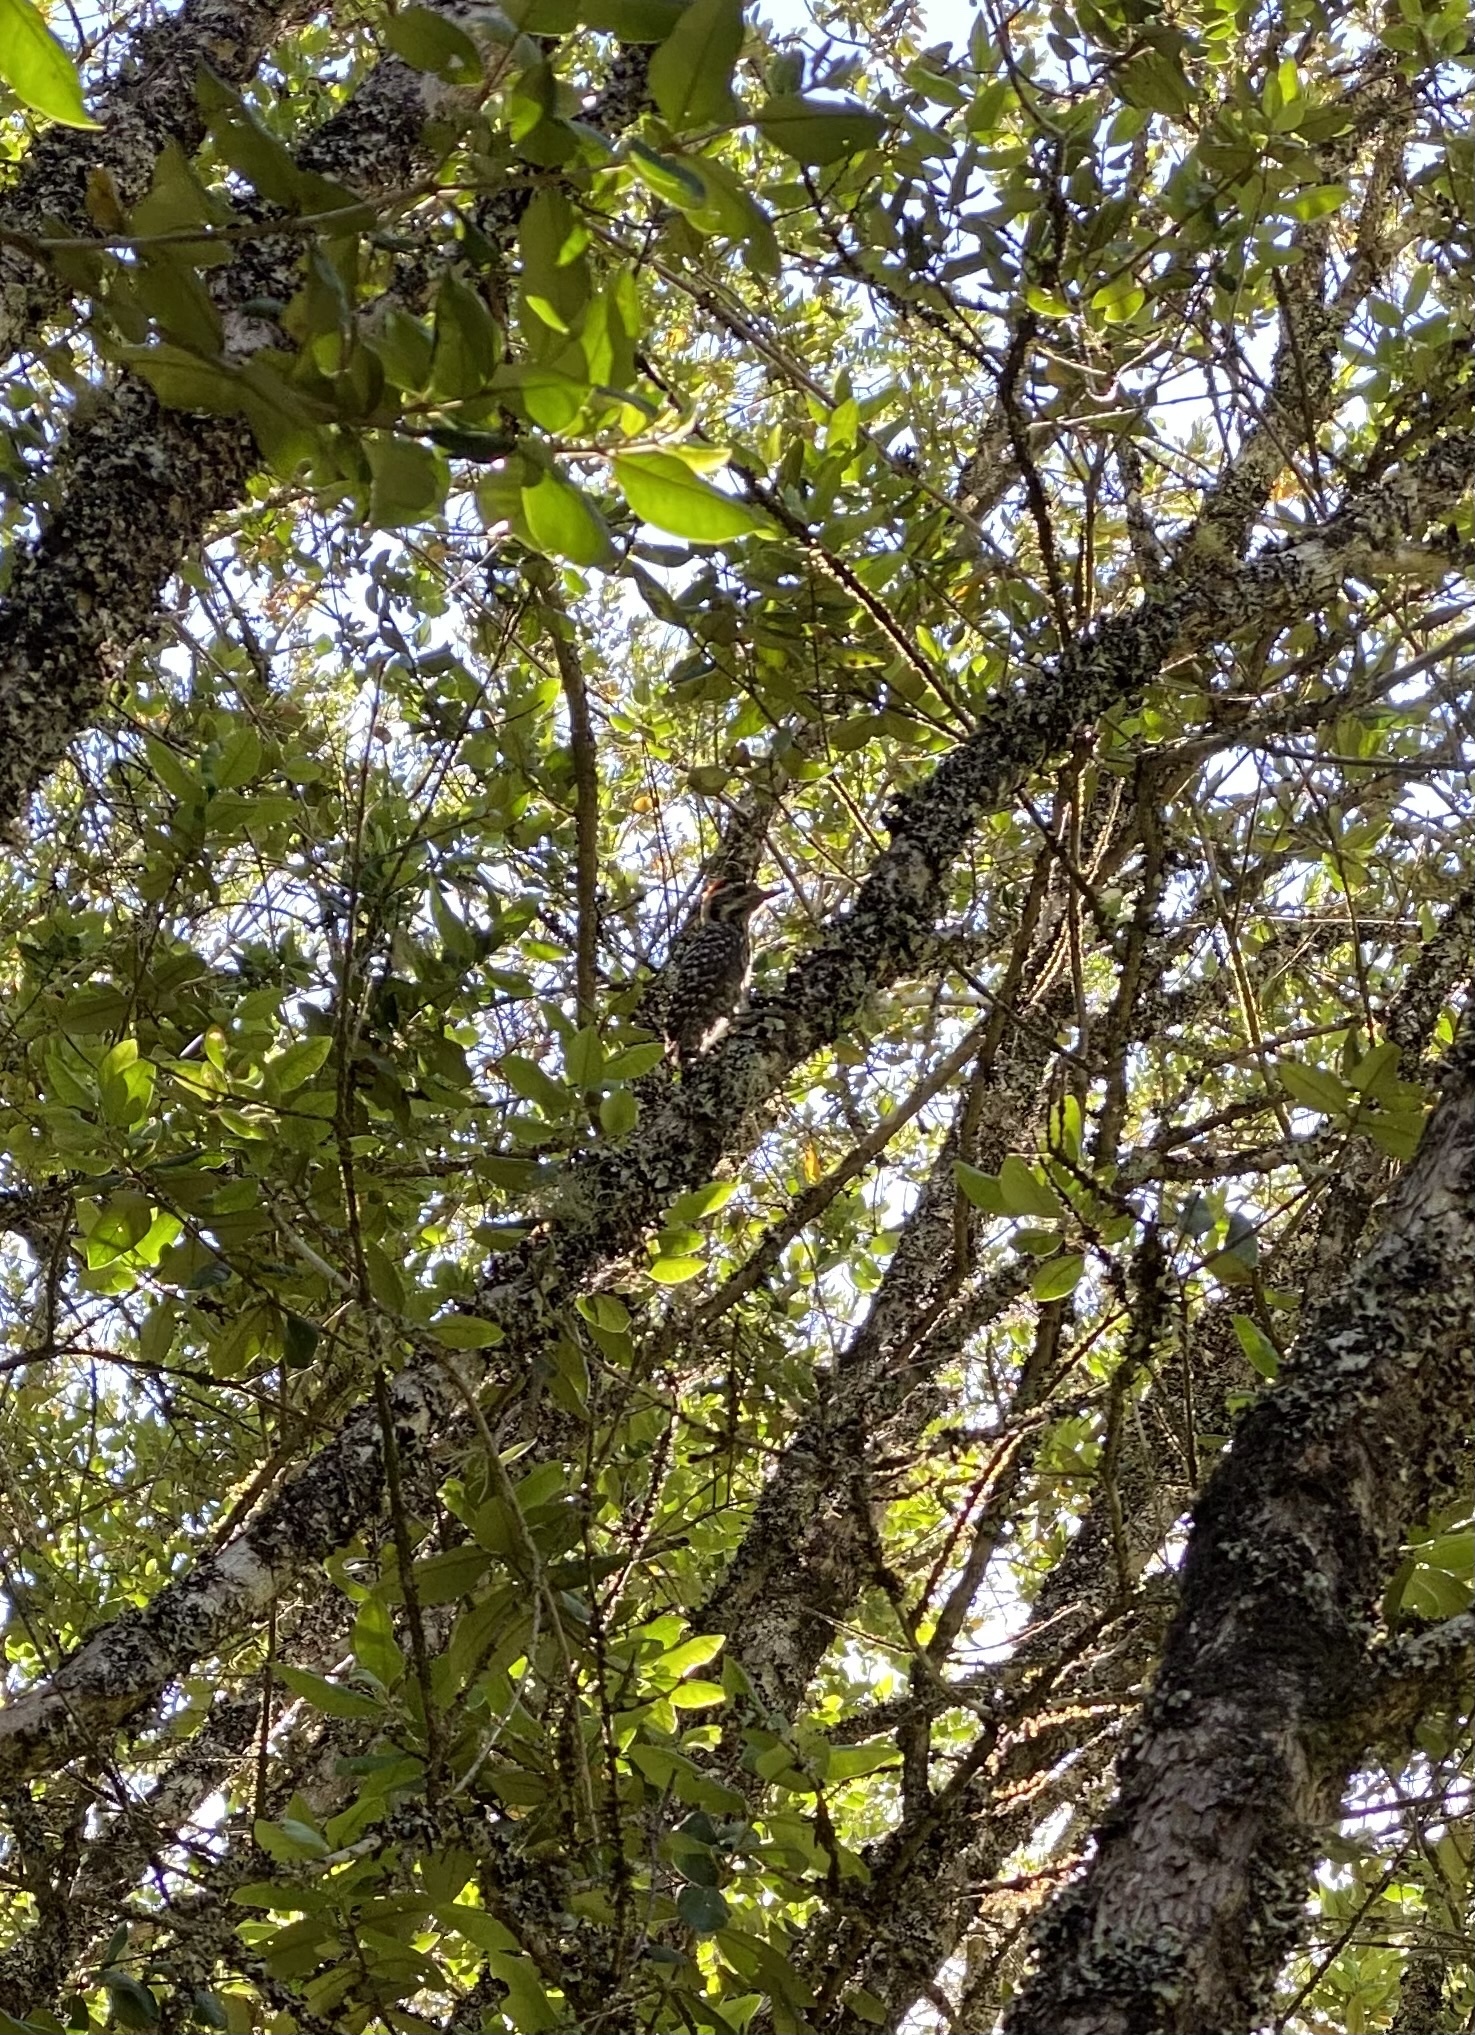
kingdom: Animalia
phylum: Chordata
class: Aves
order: Piciformes
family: Picidae
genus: Veniliornis
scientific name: Veniliornis lignarius
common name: Striped woodpecker
